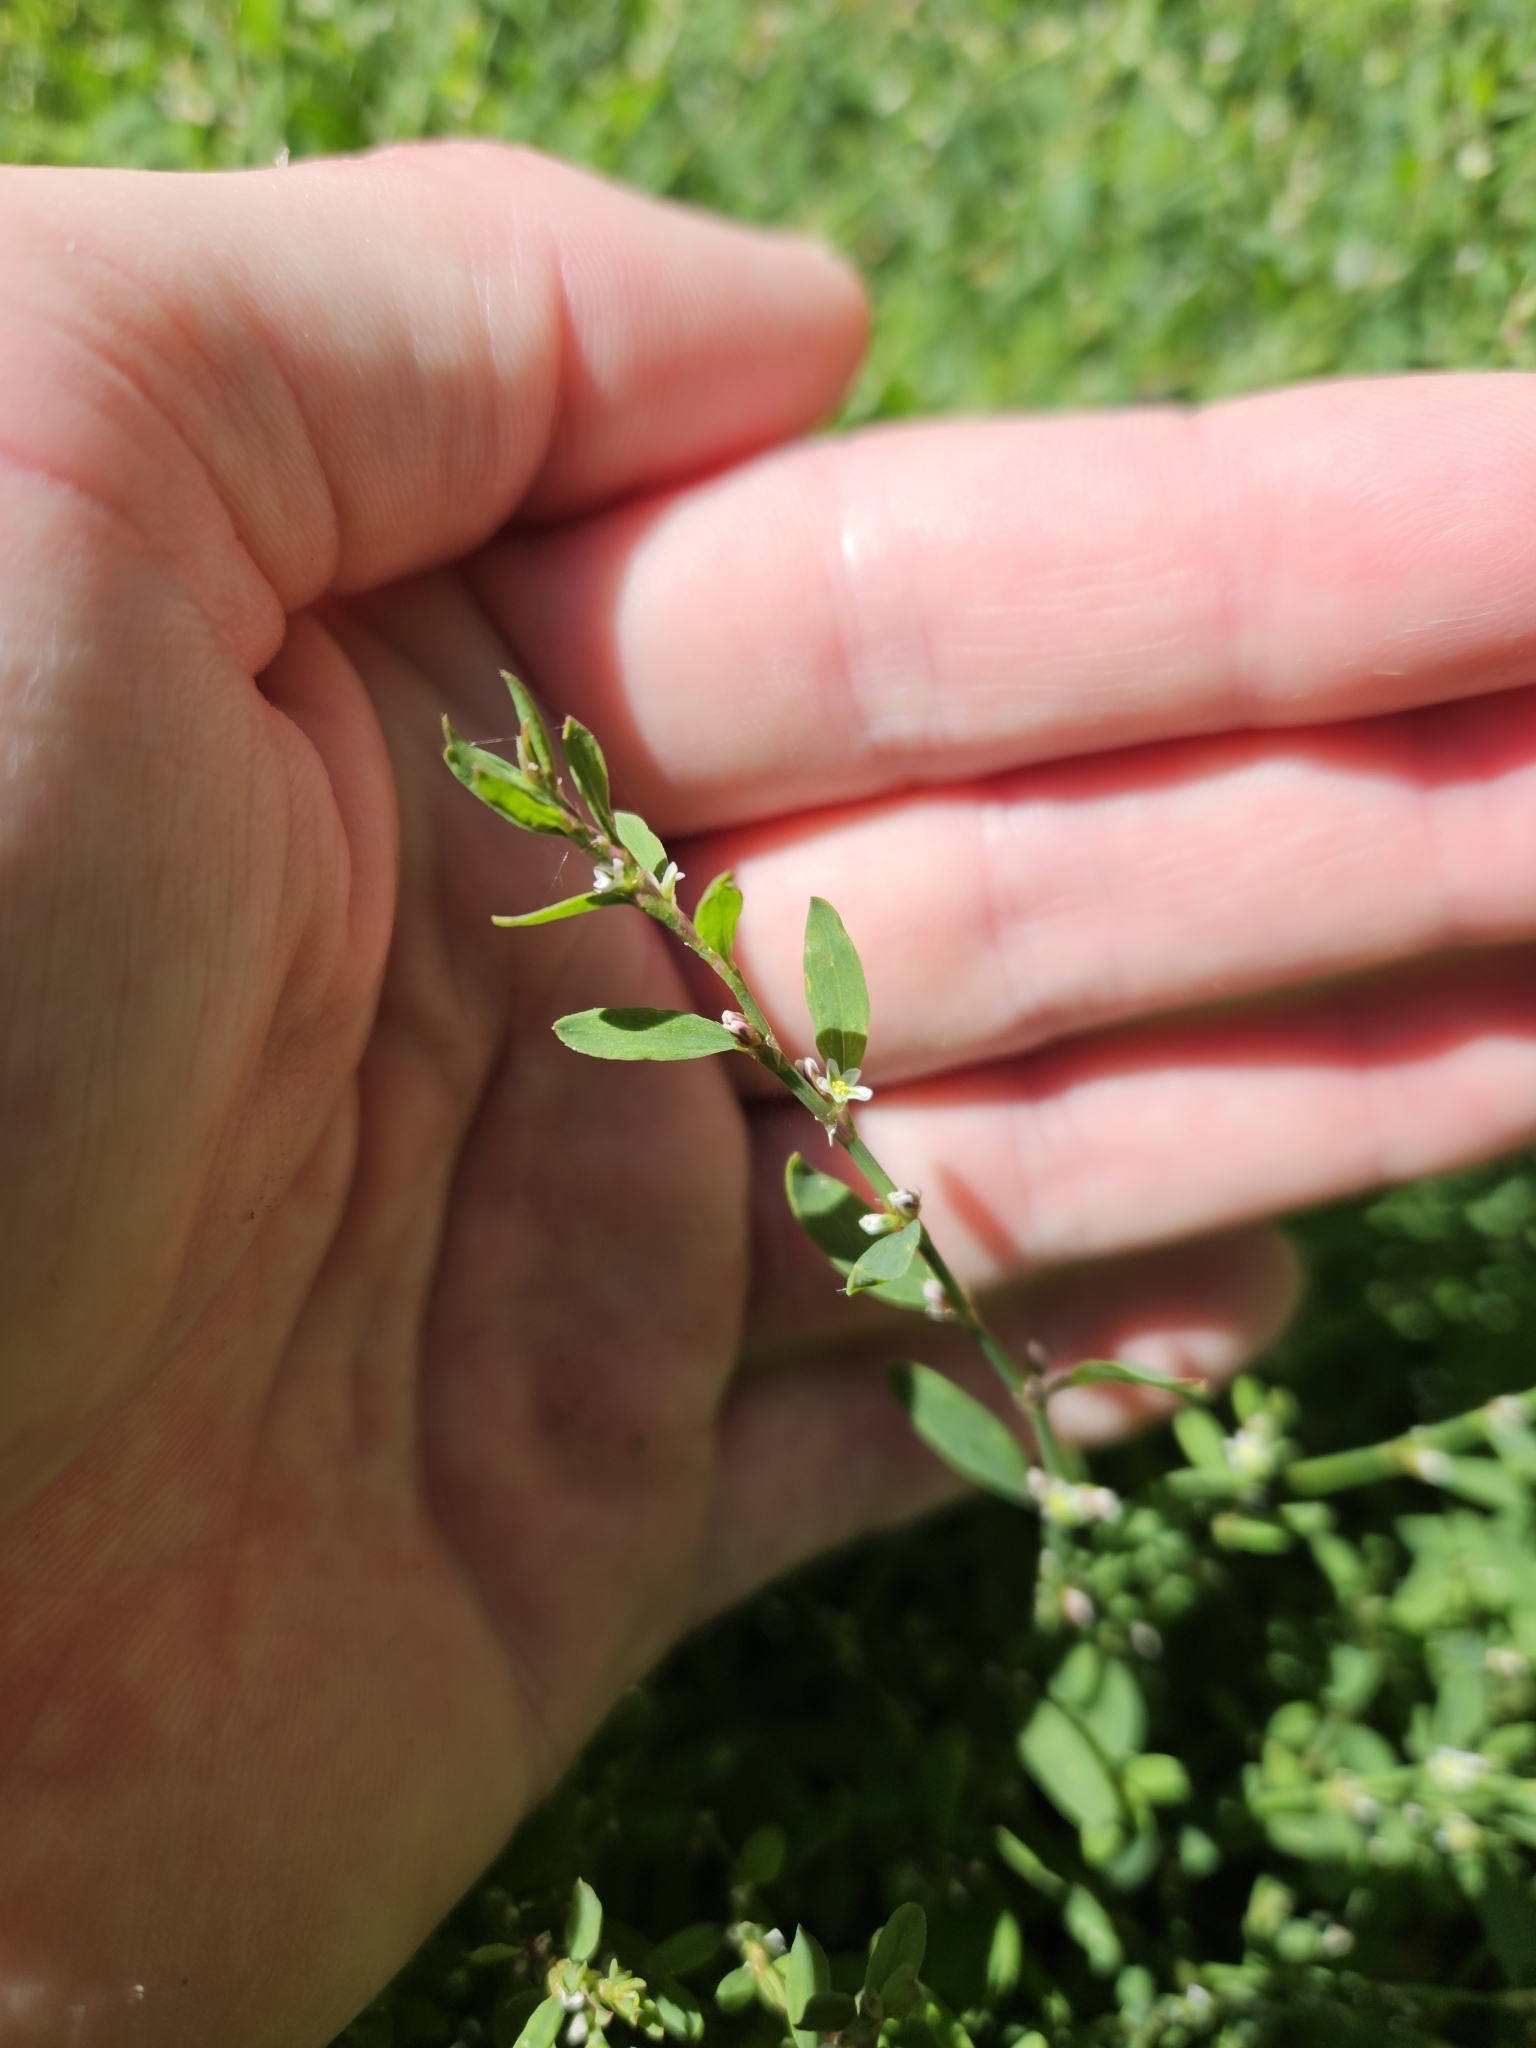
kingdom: Plantae
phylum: Tracheophyta
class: Magnoliopsida
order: Caryophyllales
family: Polygonaceae
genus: Polygonum
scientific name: Polygonum aviculare
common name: Prostrate knotweed
